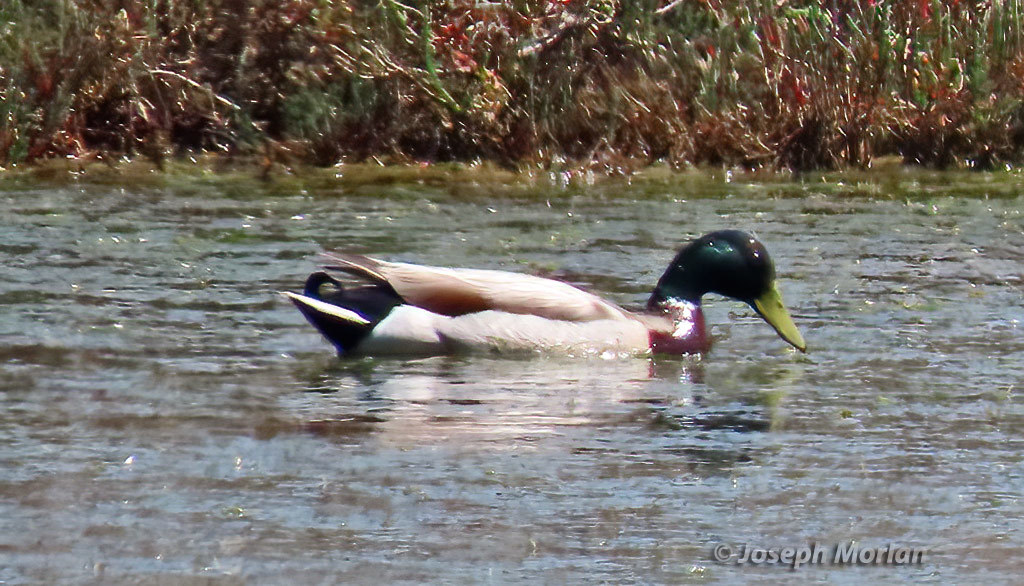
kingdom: Animalia
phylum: Chordata
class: Aves
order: Anseriformes
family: Anatidae
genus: Anas
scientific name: Anas platyrhynchos
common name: Mallard
